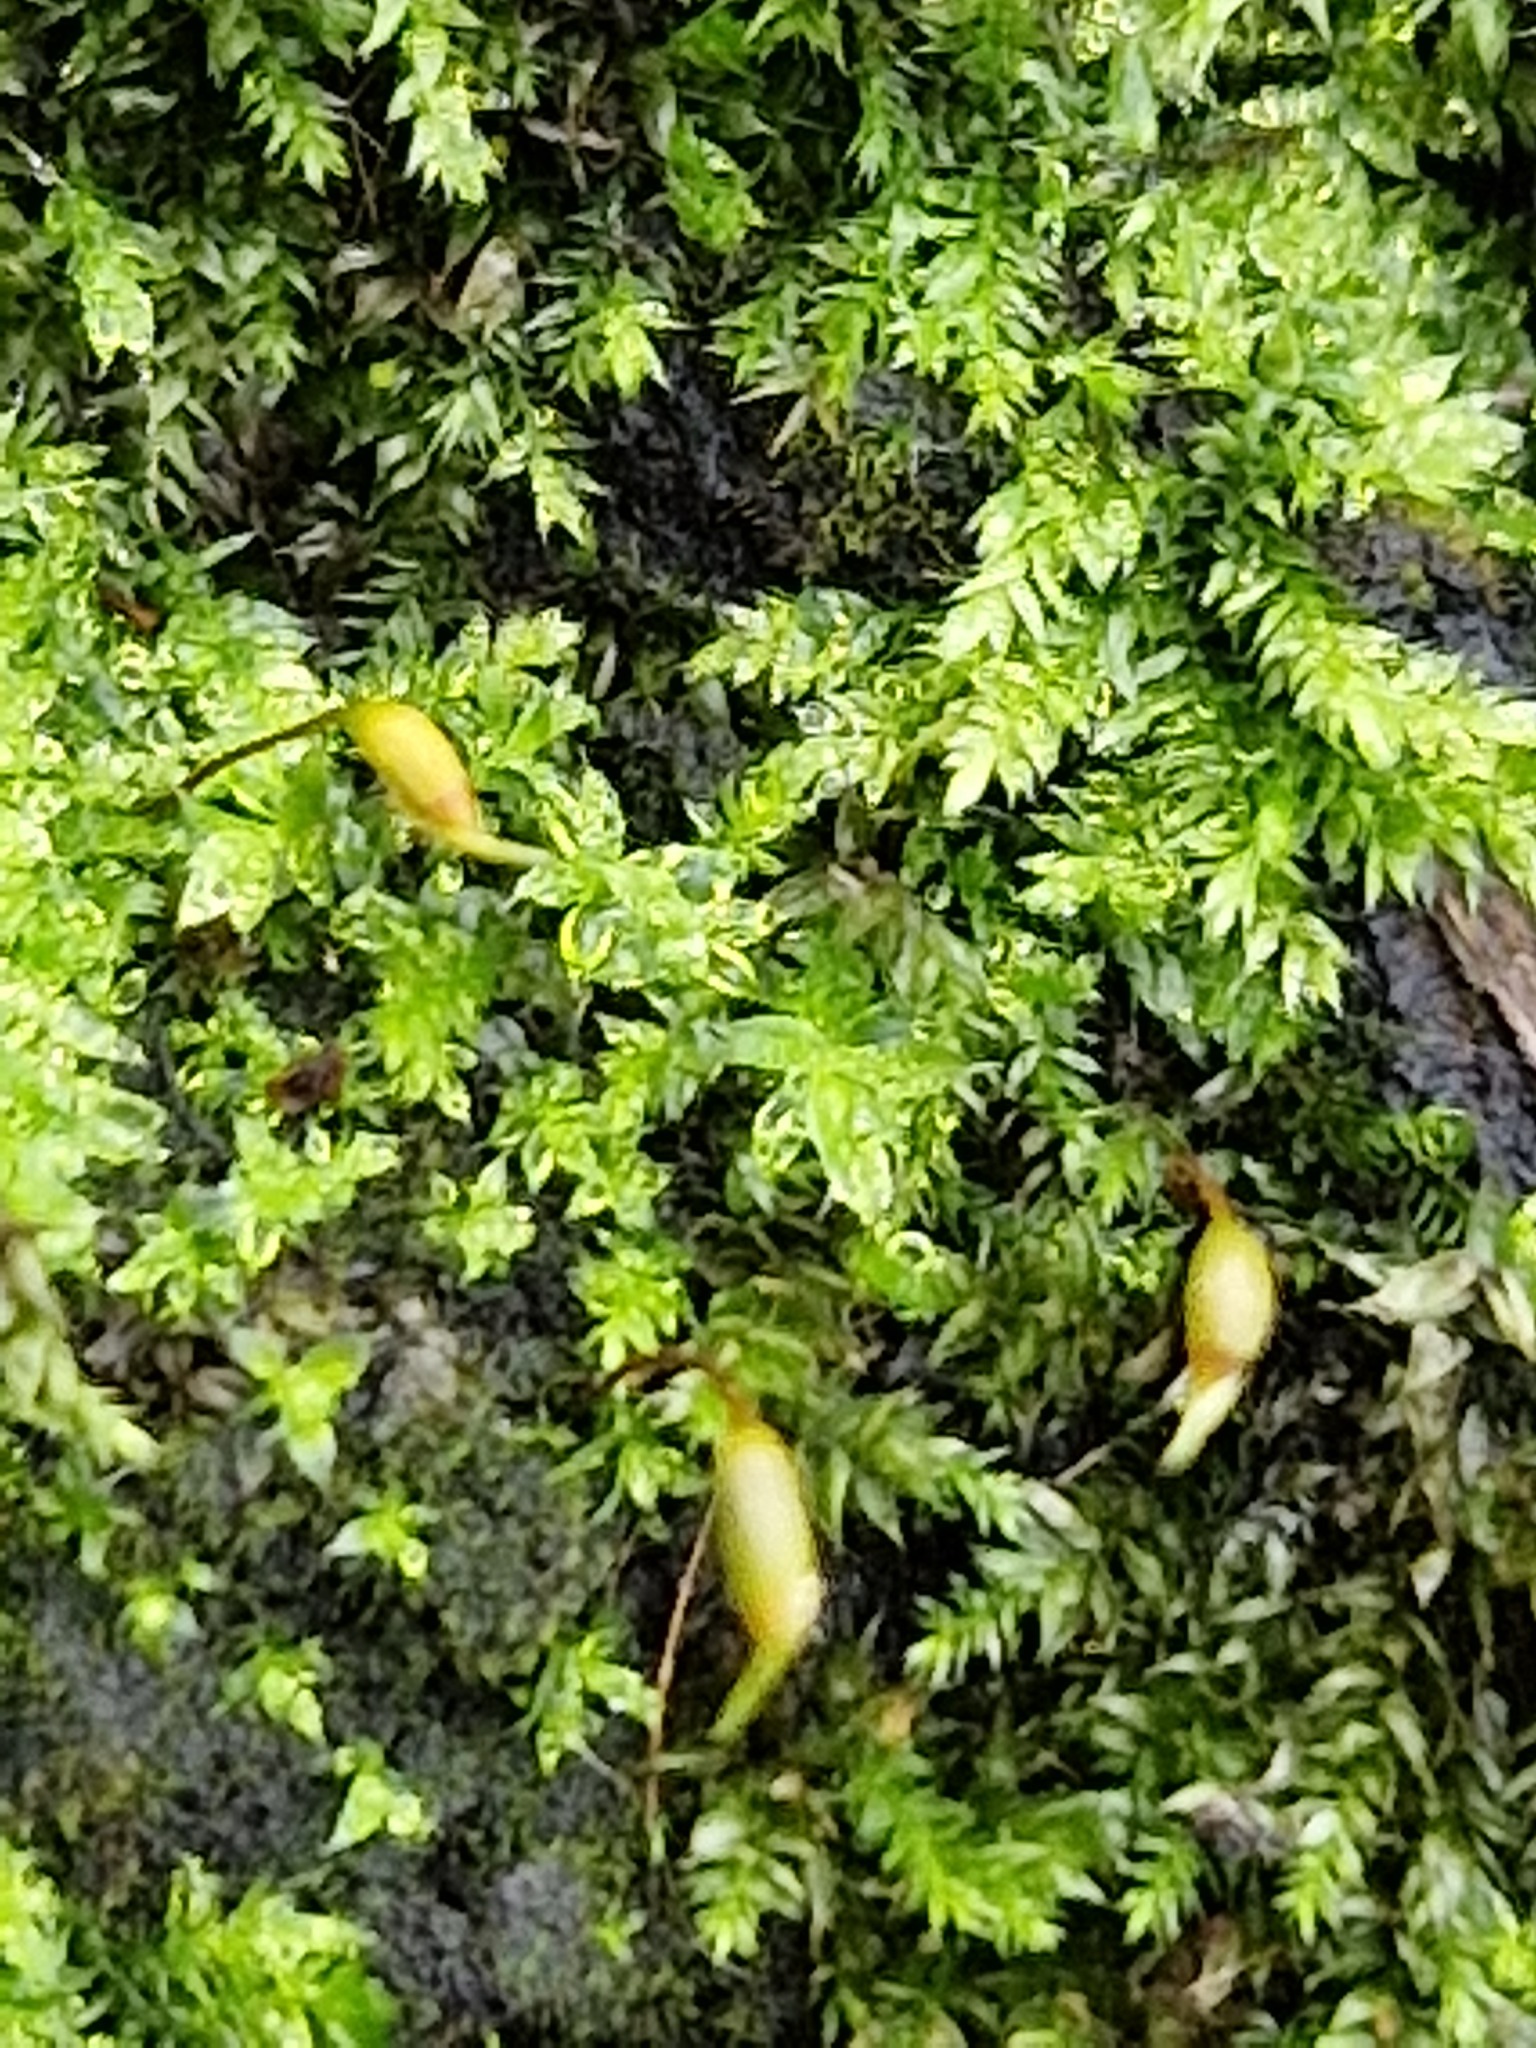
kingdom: Plantae
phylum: Bryophyta
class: Bryopsida
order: Hypnales
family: Brachytheciaceae
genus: Rhynchostegium
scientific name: Rhynchostegium confertum
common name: Clustered feather-moss
